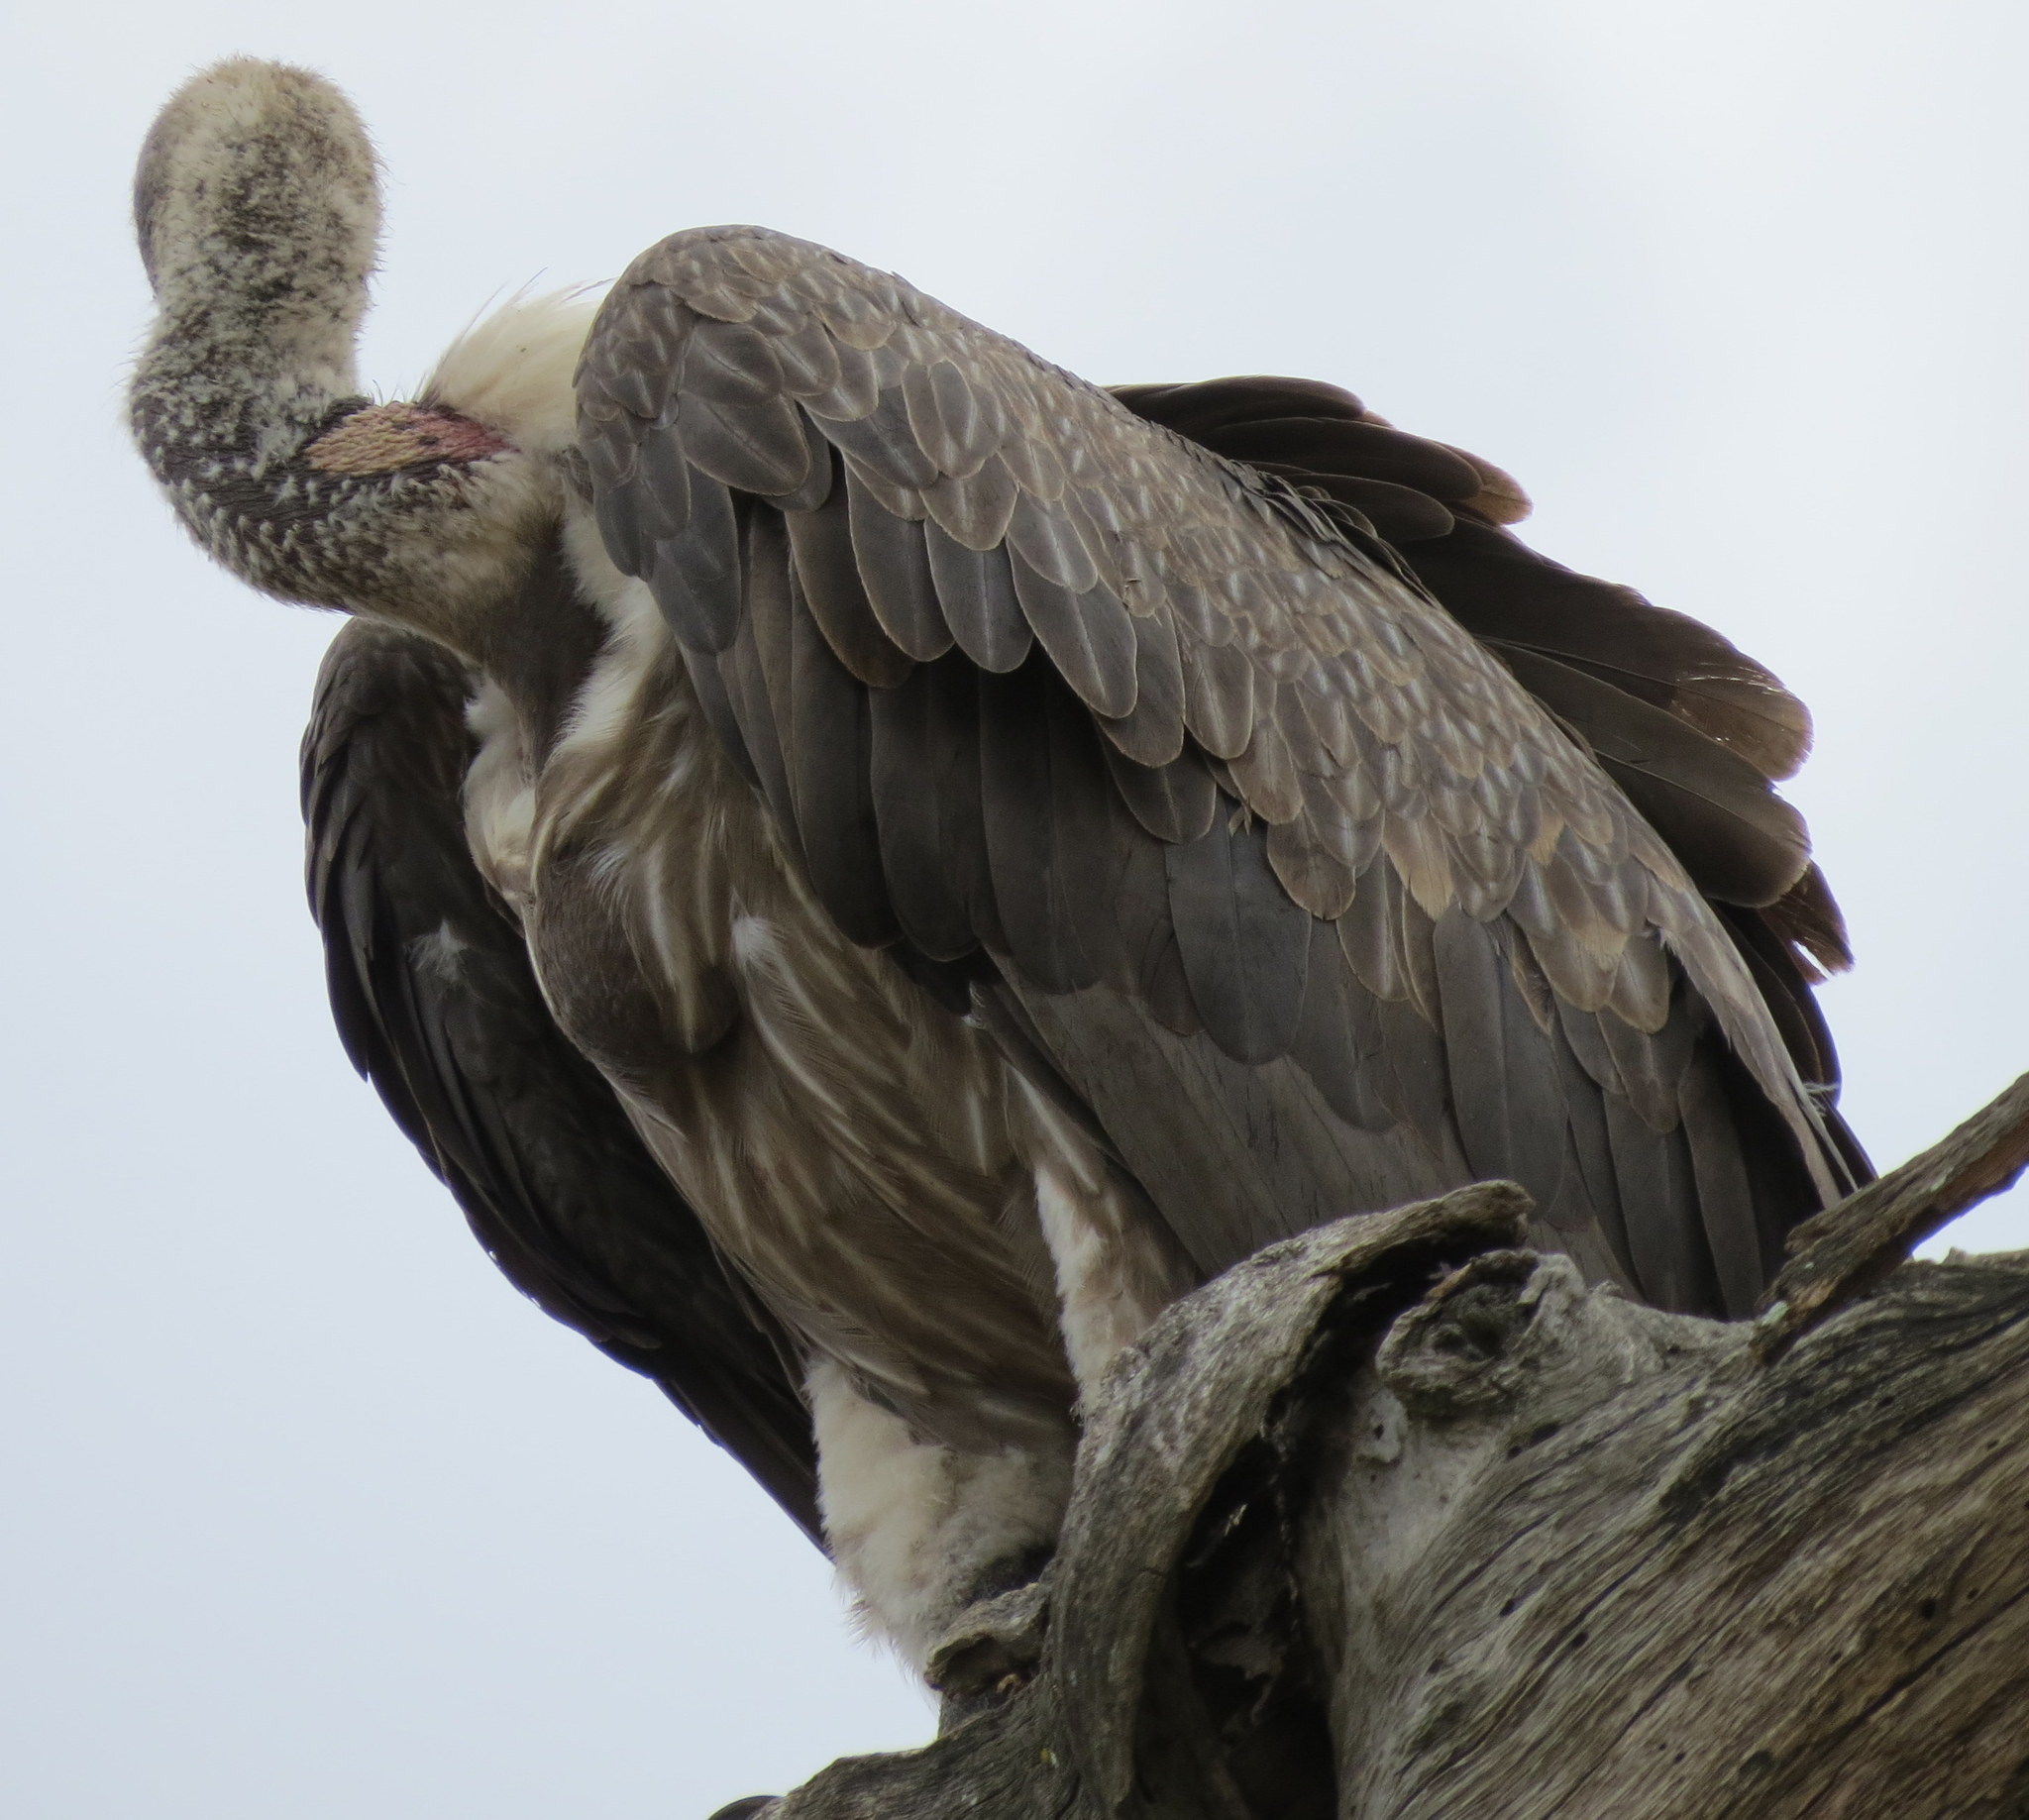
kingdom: Animalia
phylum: Chordata
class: Aves
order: Accipitriformes
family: Accipitridae
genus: Gyps
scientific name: Gyps africanus
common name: White-backed vulture
